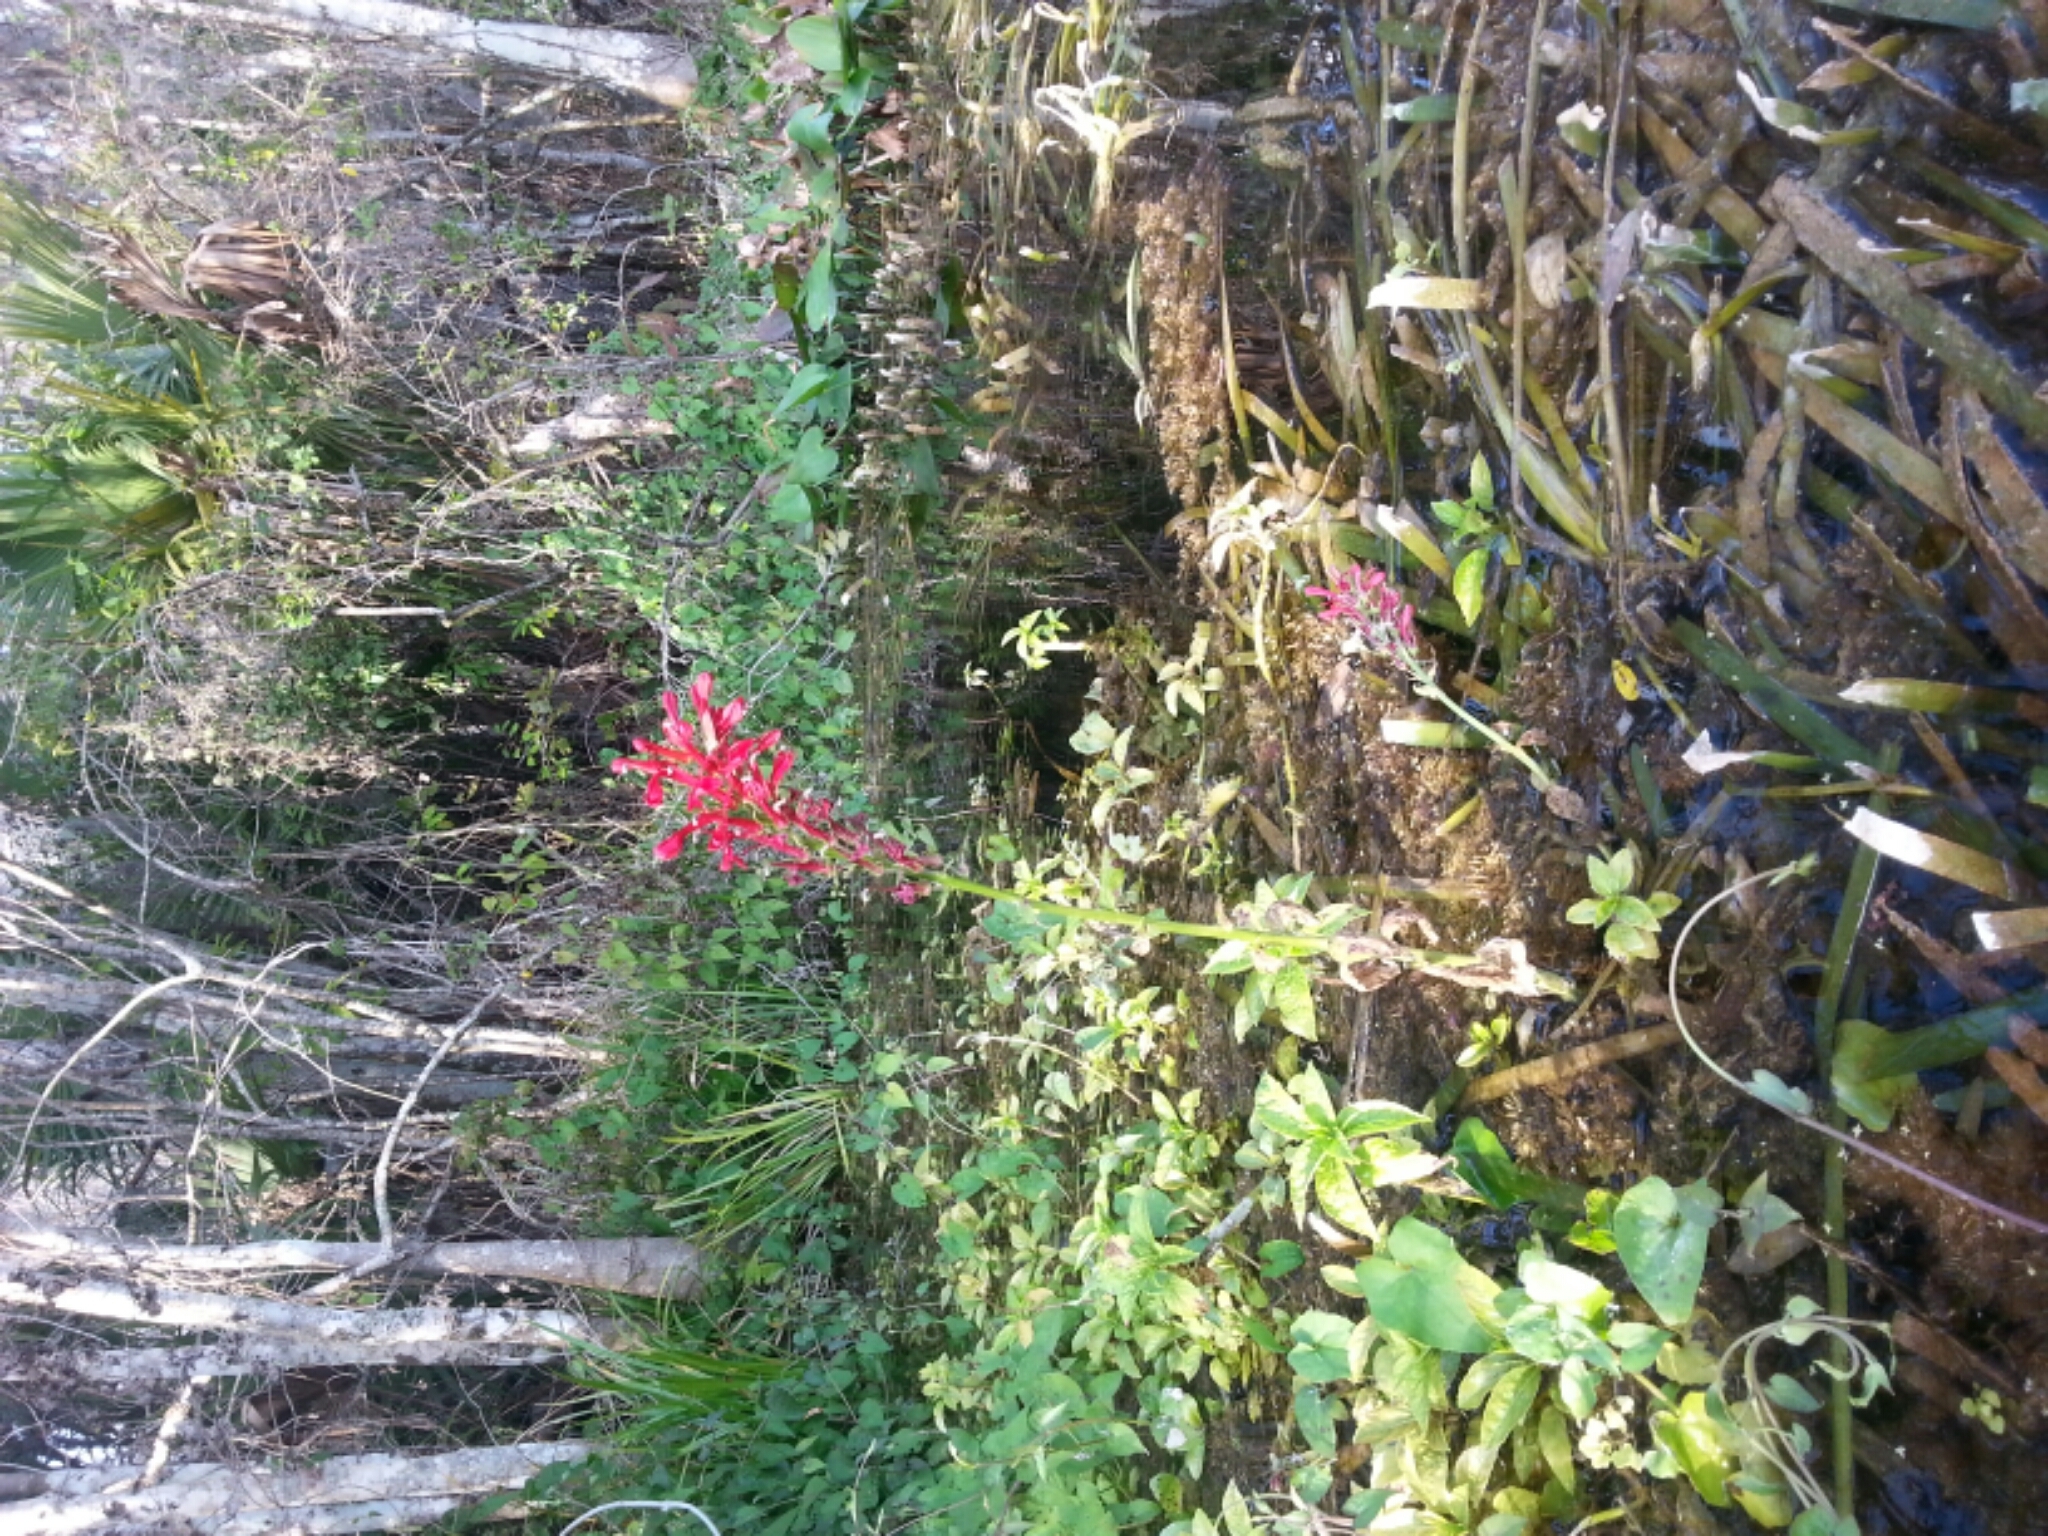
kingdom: Plantae
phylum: Tracheophyta
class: Magnoliopsida
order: Asterales
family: Campanulaceae
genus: Lobelia
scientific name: Lobelia cardinalis
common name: Cardinal flower
